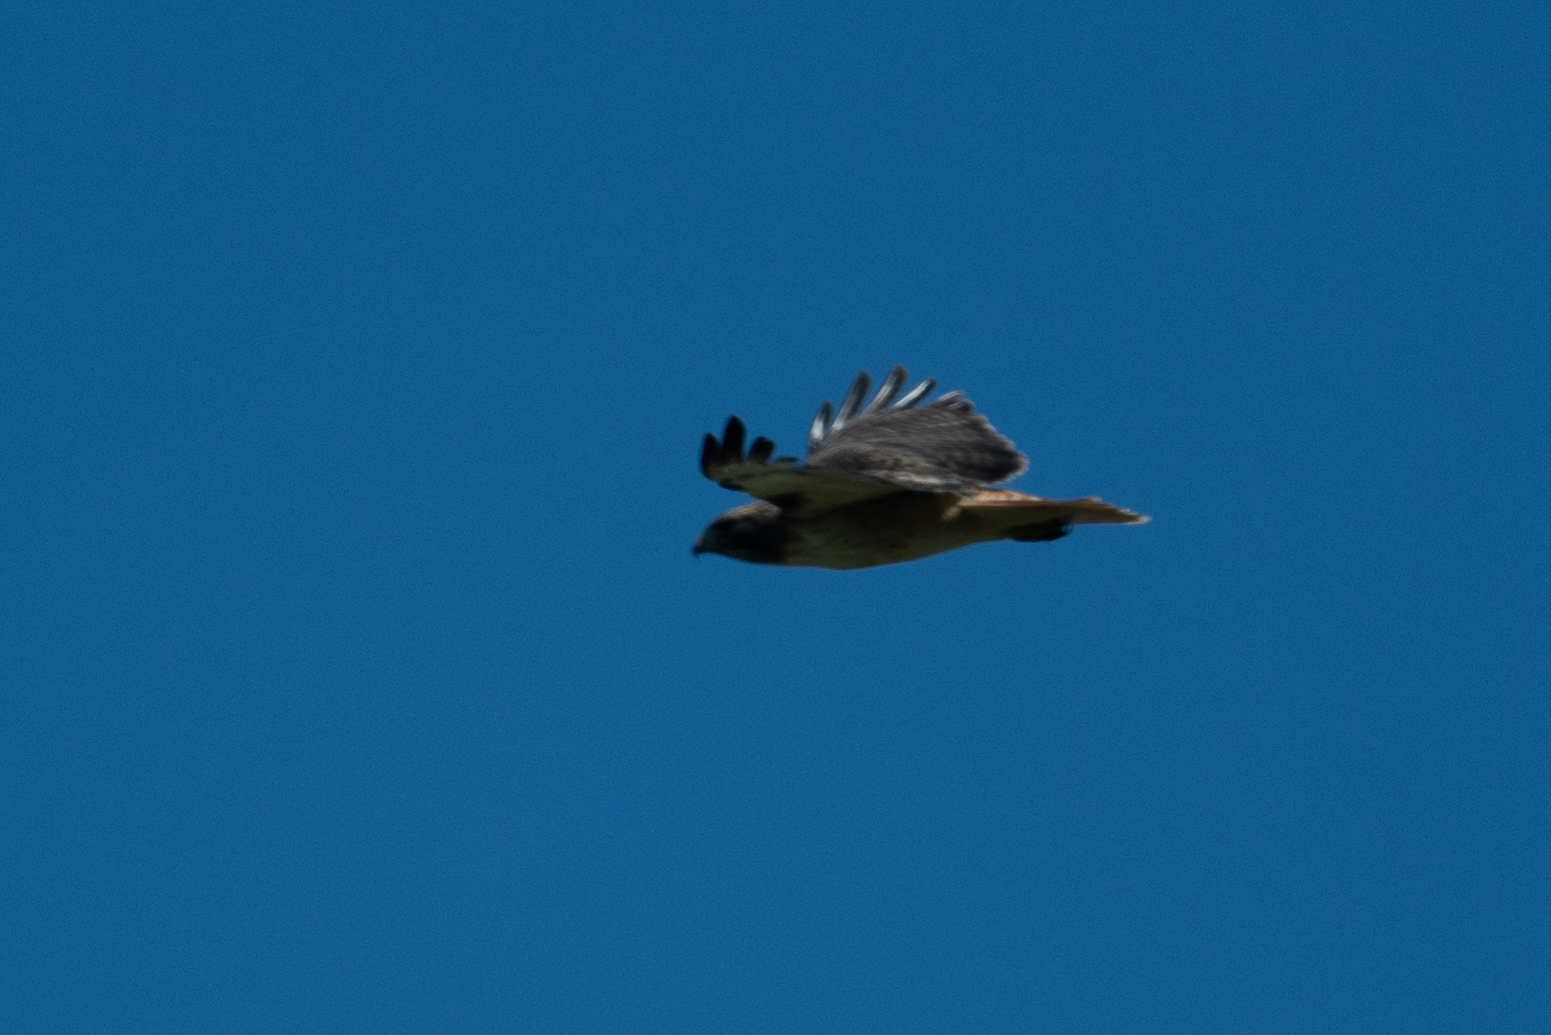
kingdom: Animalia
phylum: Chordata
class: Aves
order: Accipitriformes
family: Accipitridae
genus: Buteo
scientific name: Buteo jamaicensis
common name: Red-tailed hawk
